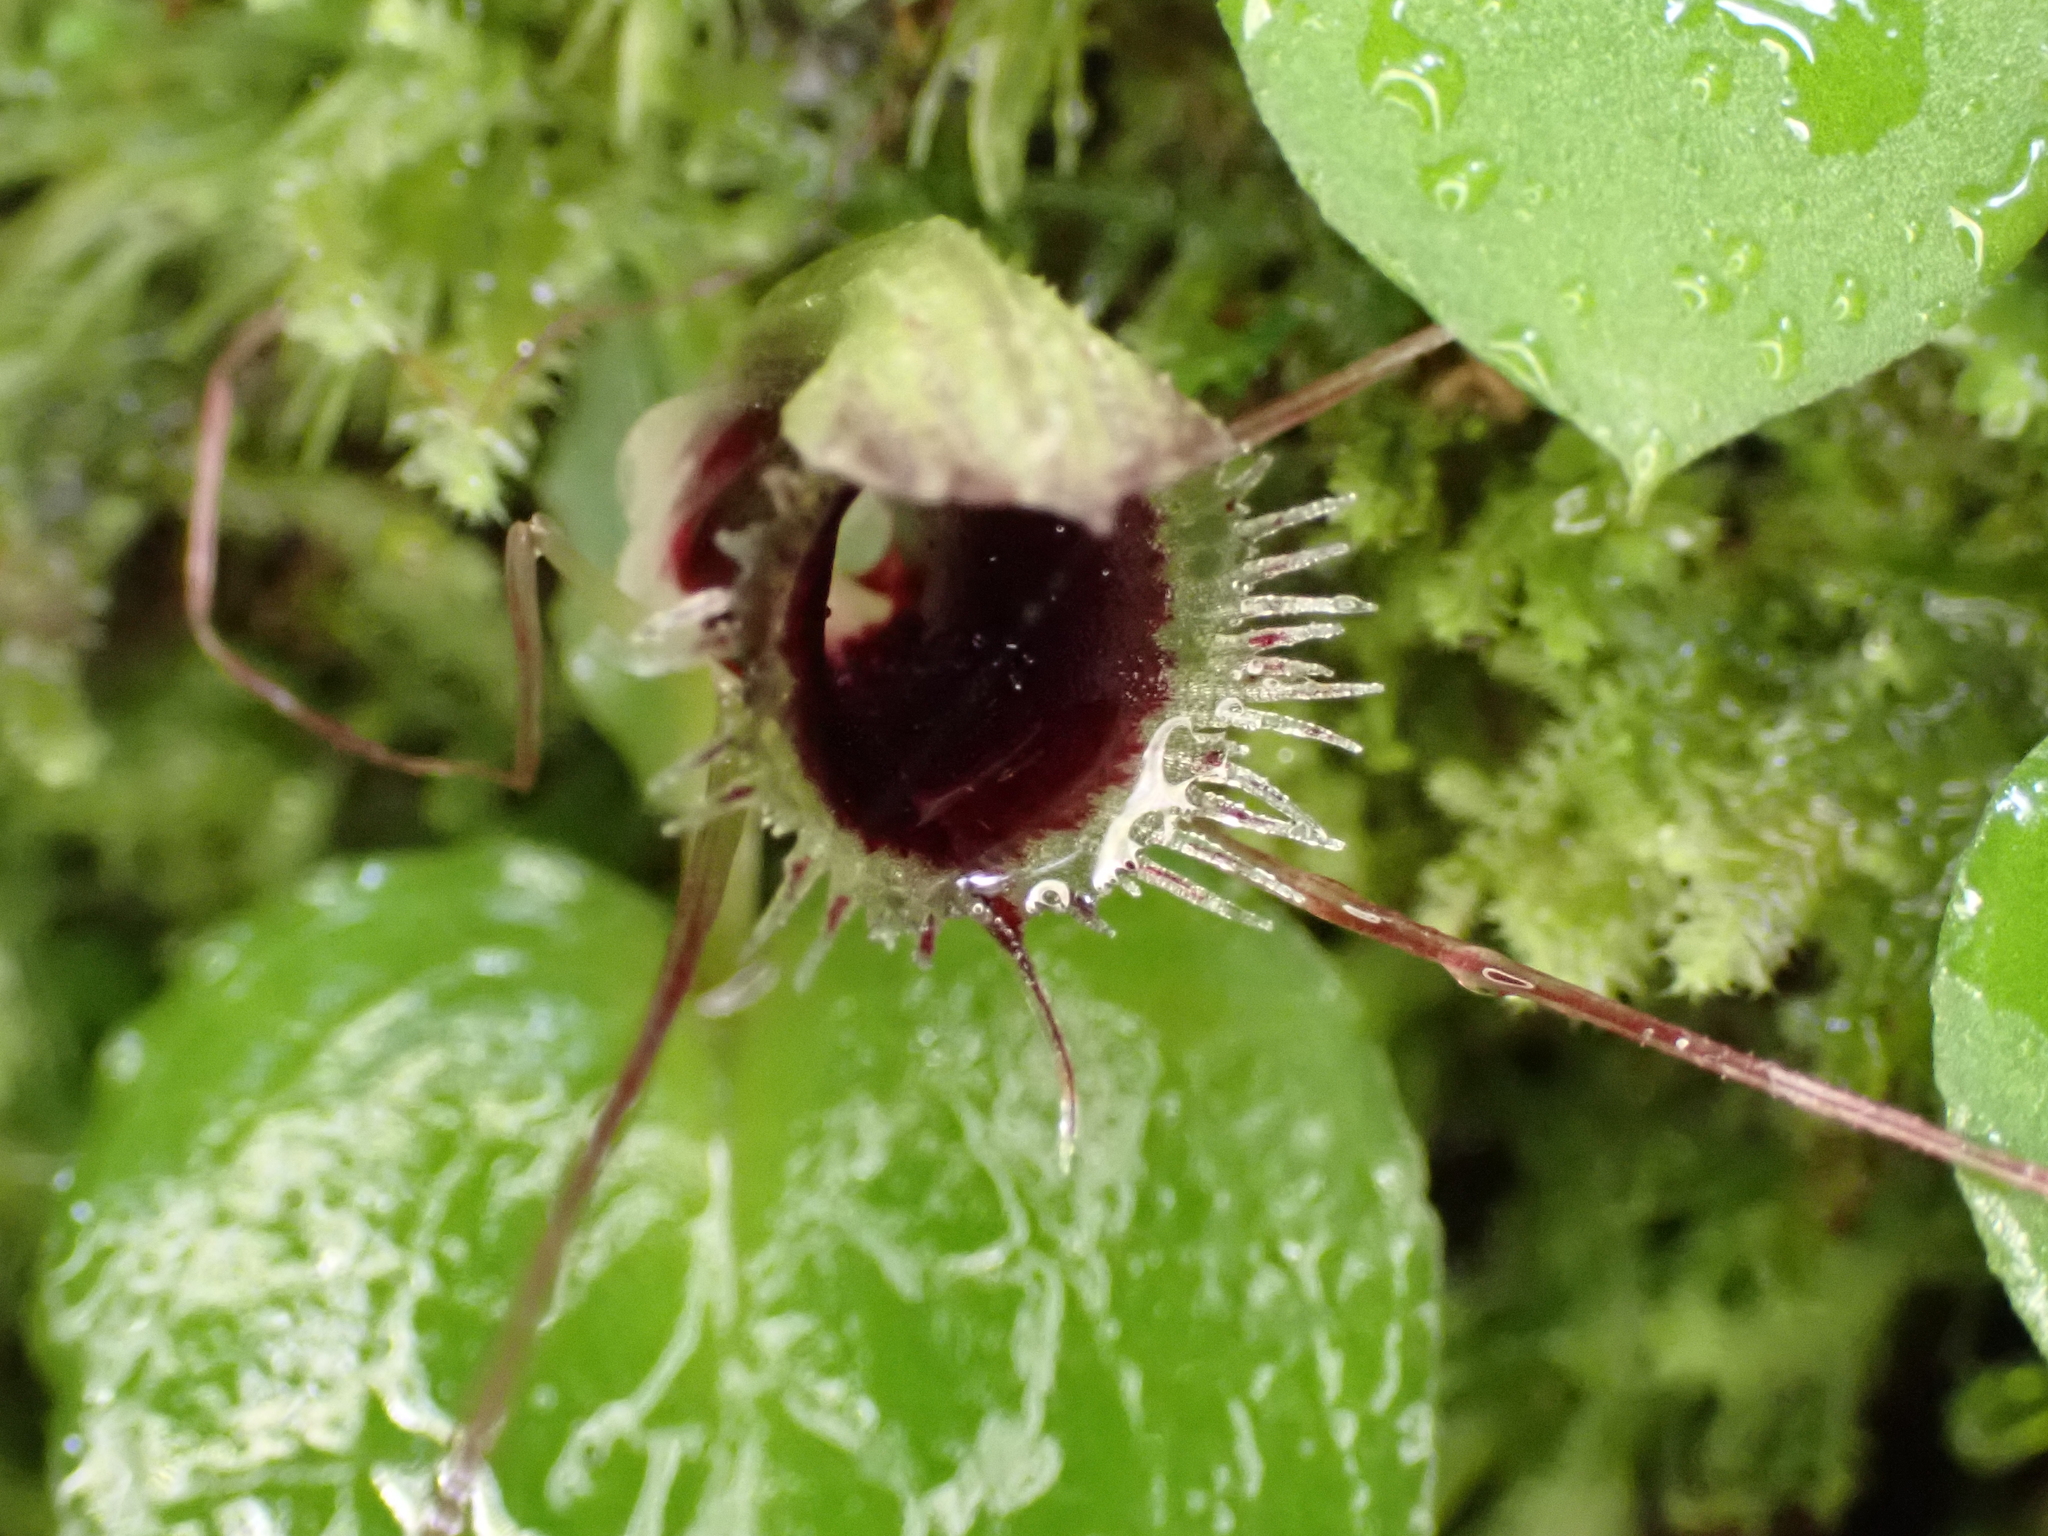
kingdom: Plantae
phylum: Tracheophyta
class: Liliopsida
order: Asparagales
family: Orchidaceae
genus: Corybas
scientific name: Corybas oblongus
